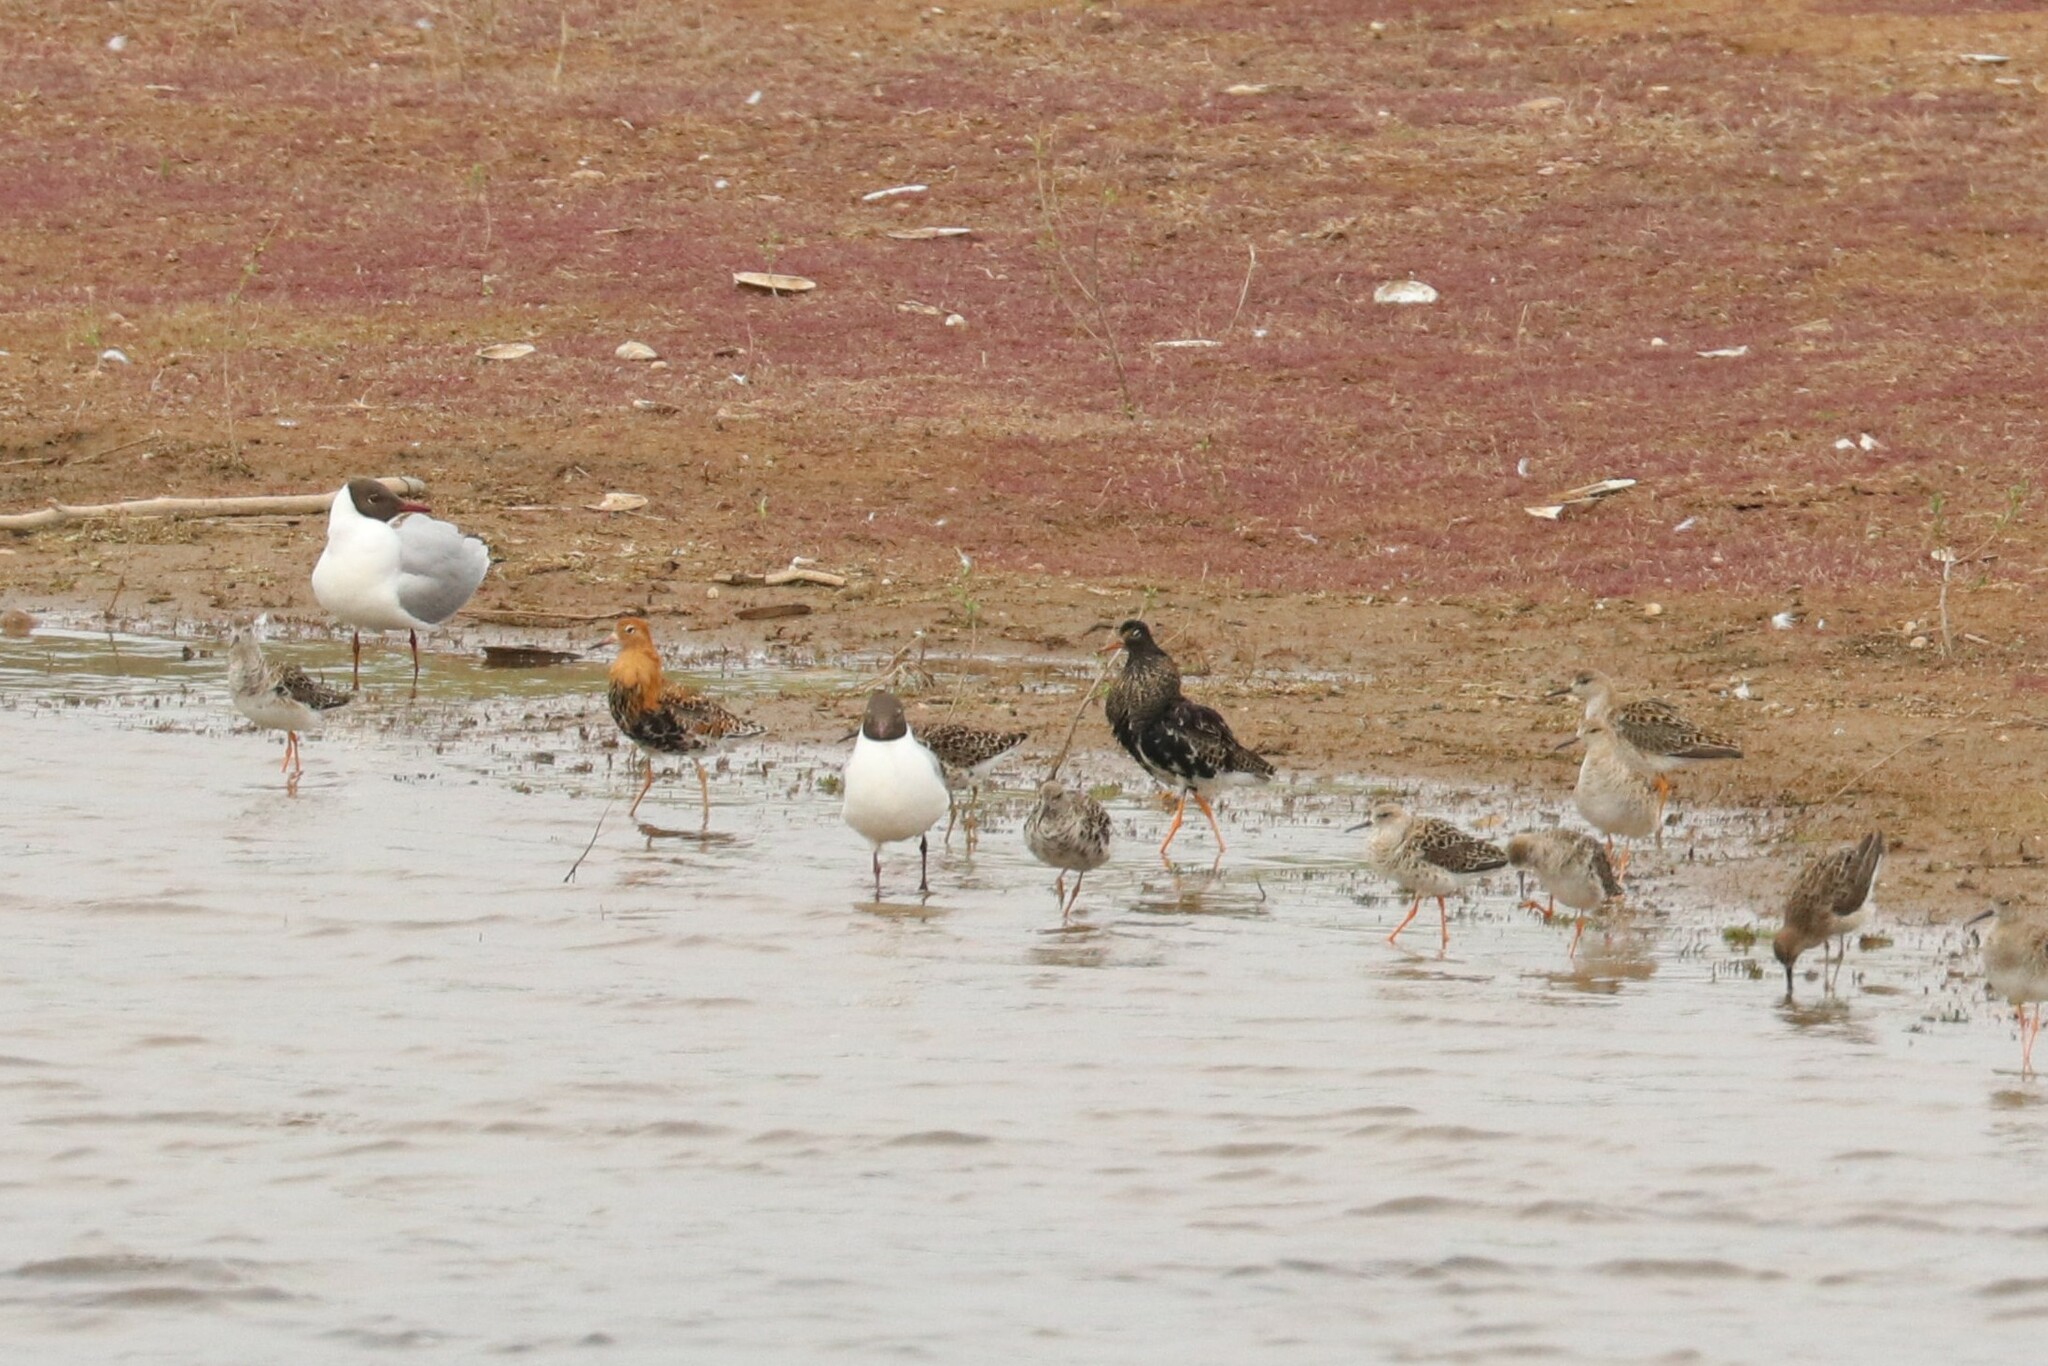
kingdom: Animalia
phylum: Chordata
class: Aves
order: Charadriiformes
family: Scolopacidae
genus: Calidris
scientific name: Calidris pugnax
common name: Ruff
